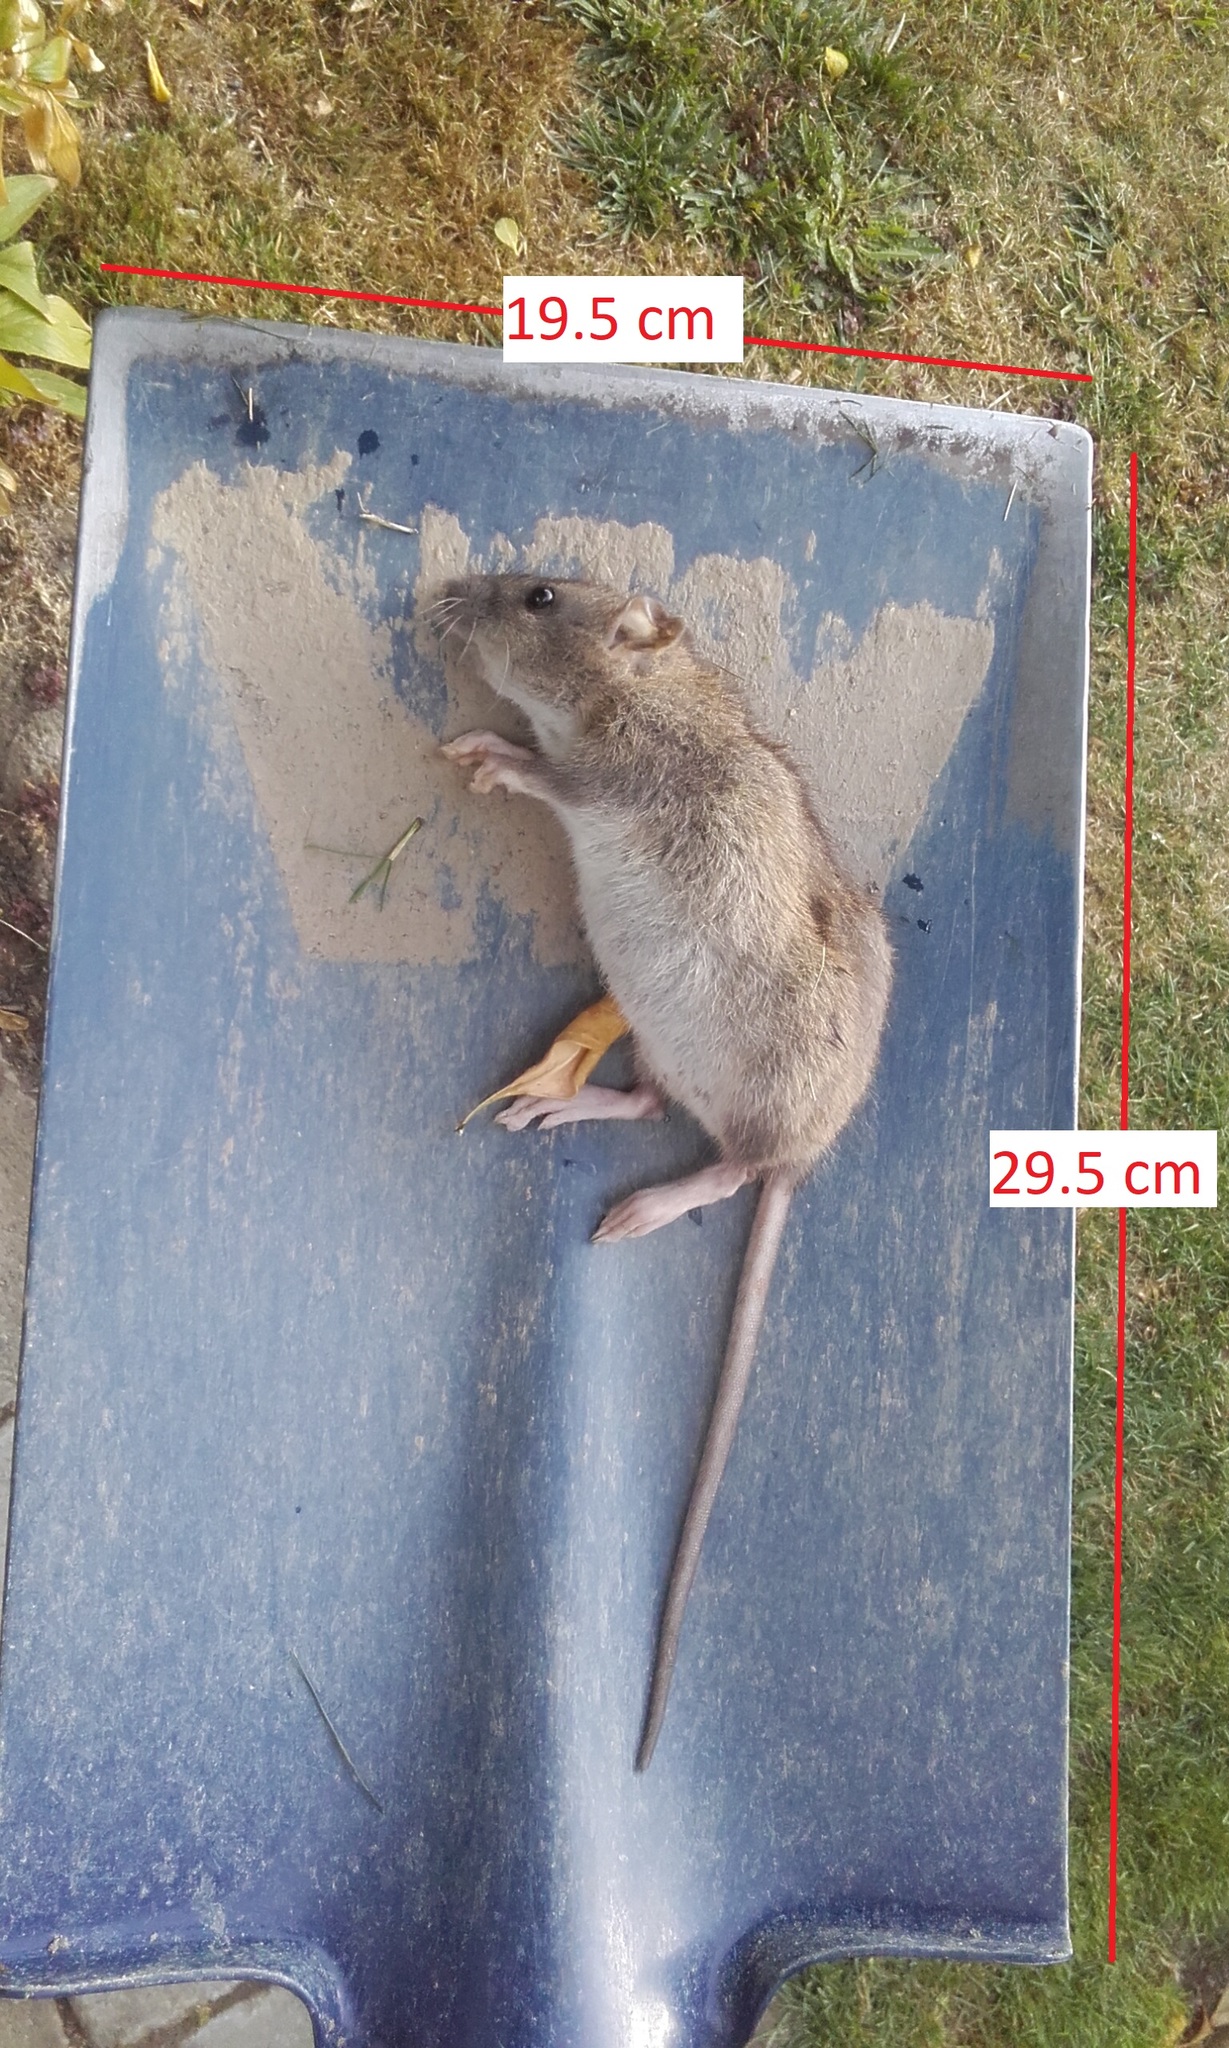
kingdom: Animalia
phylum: Chordata
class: Mammalia
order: Rodentia
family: Muridae
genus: Rattus
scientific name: Rattus norvegicus
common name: Brown rat
